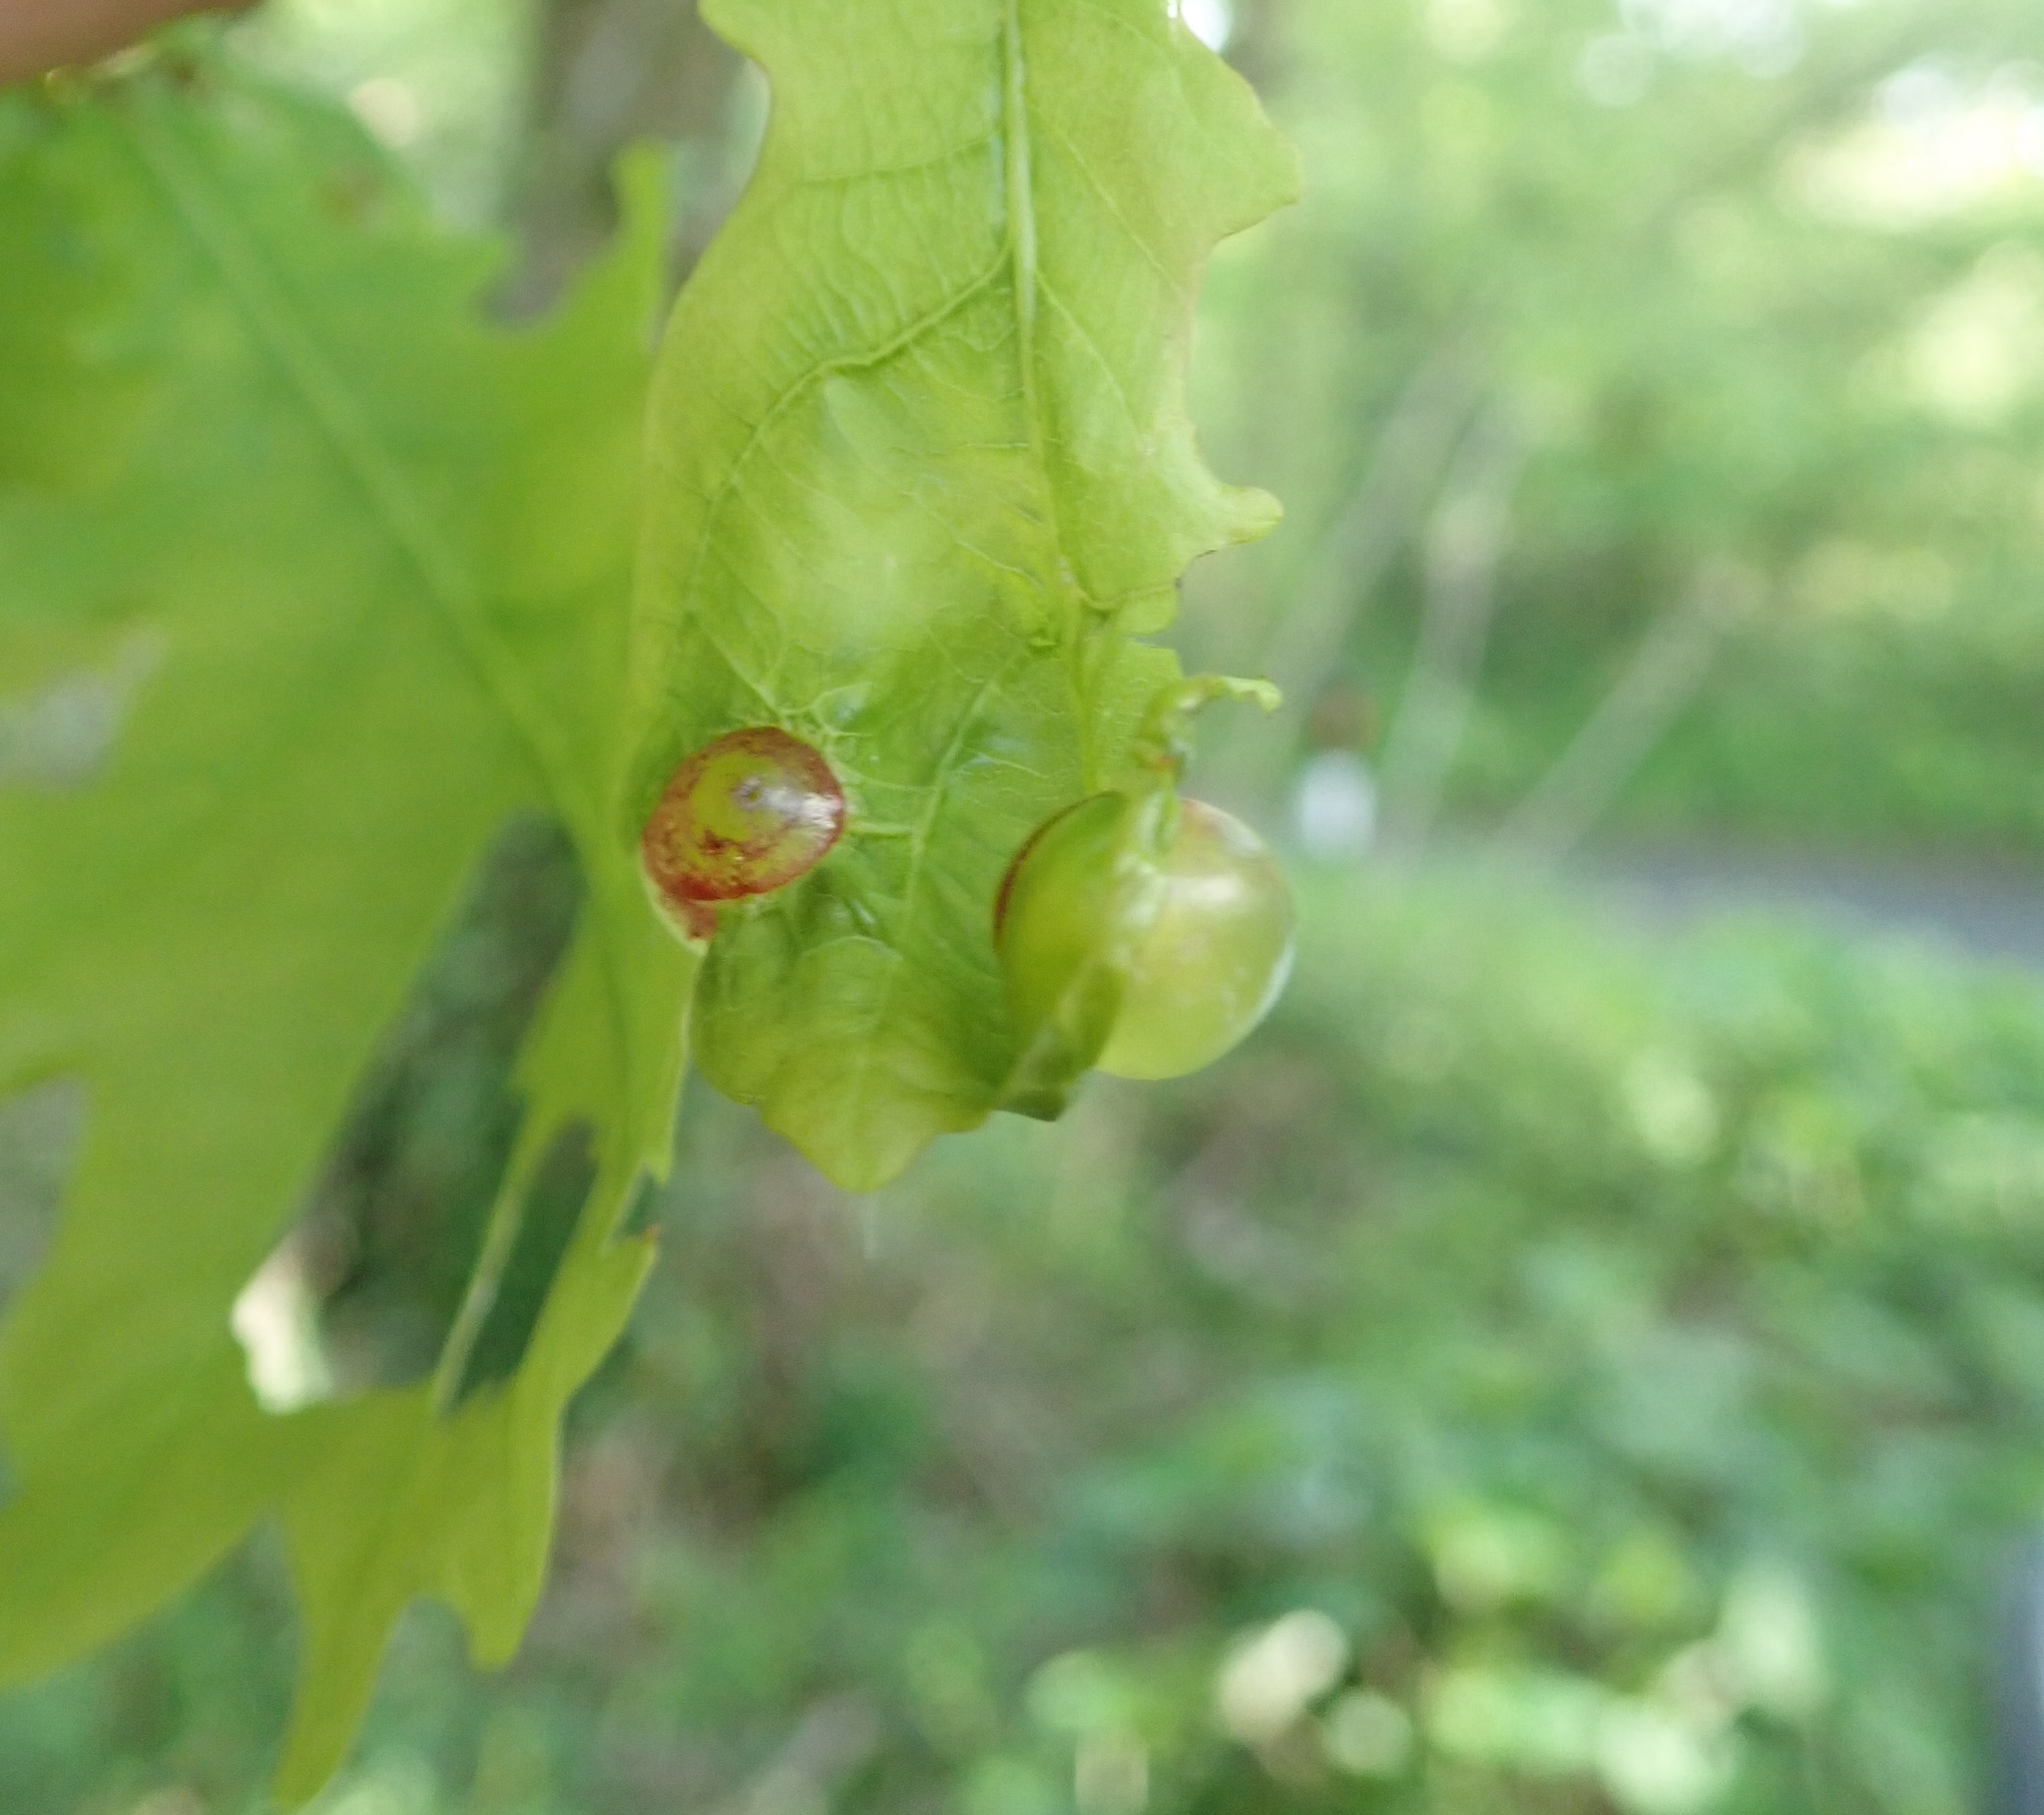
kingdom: Animalia
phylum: Arthropoda
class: Insecta
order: Hymenoptera
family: Cynipidae
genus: Neuroterus
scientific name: Neuroterus quercusbaccarum
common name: Common spangle gall
